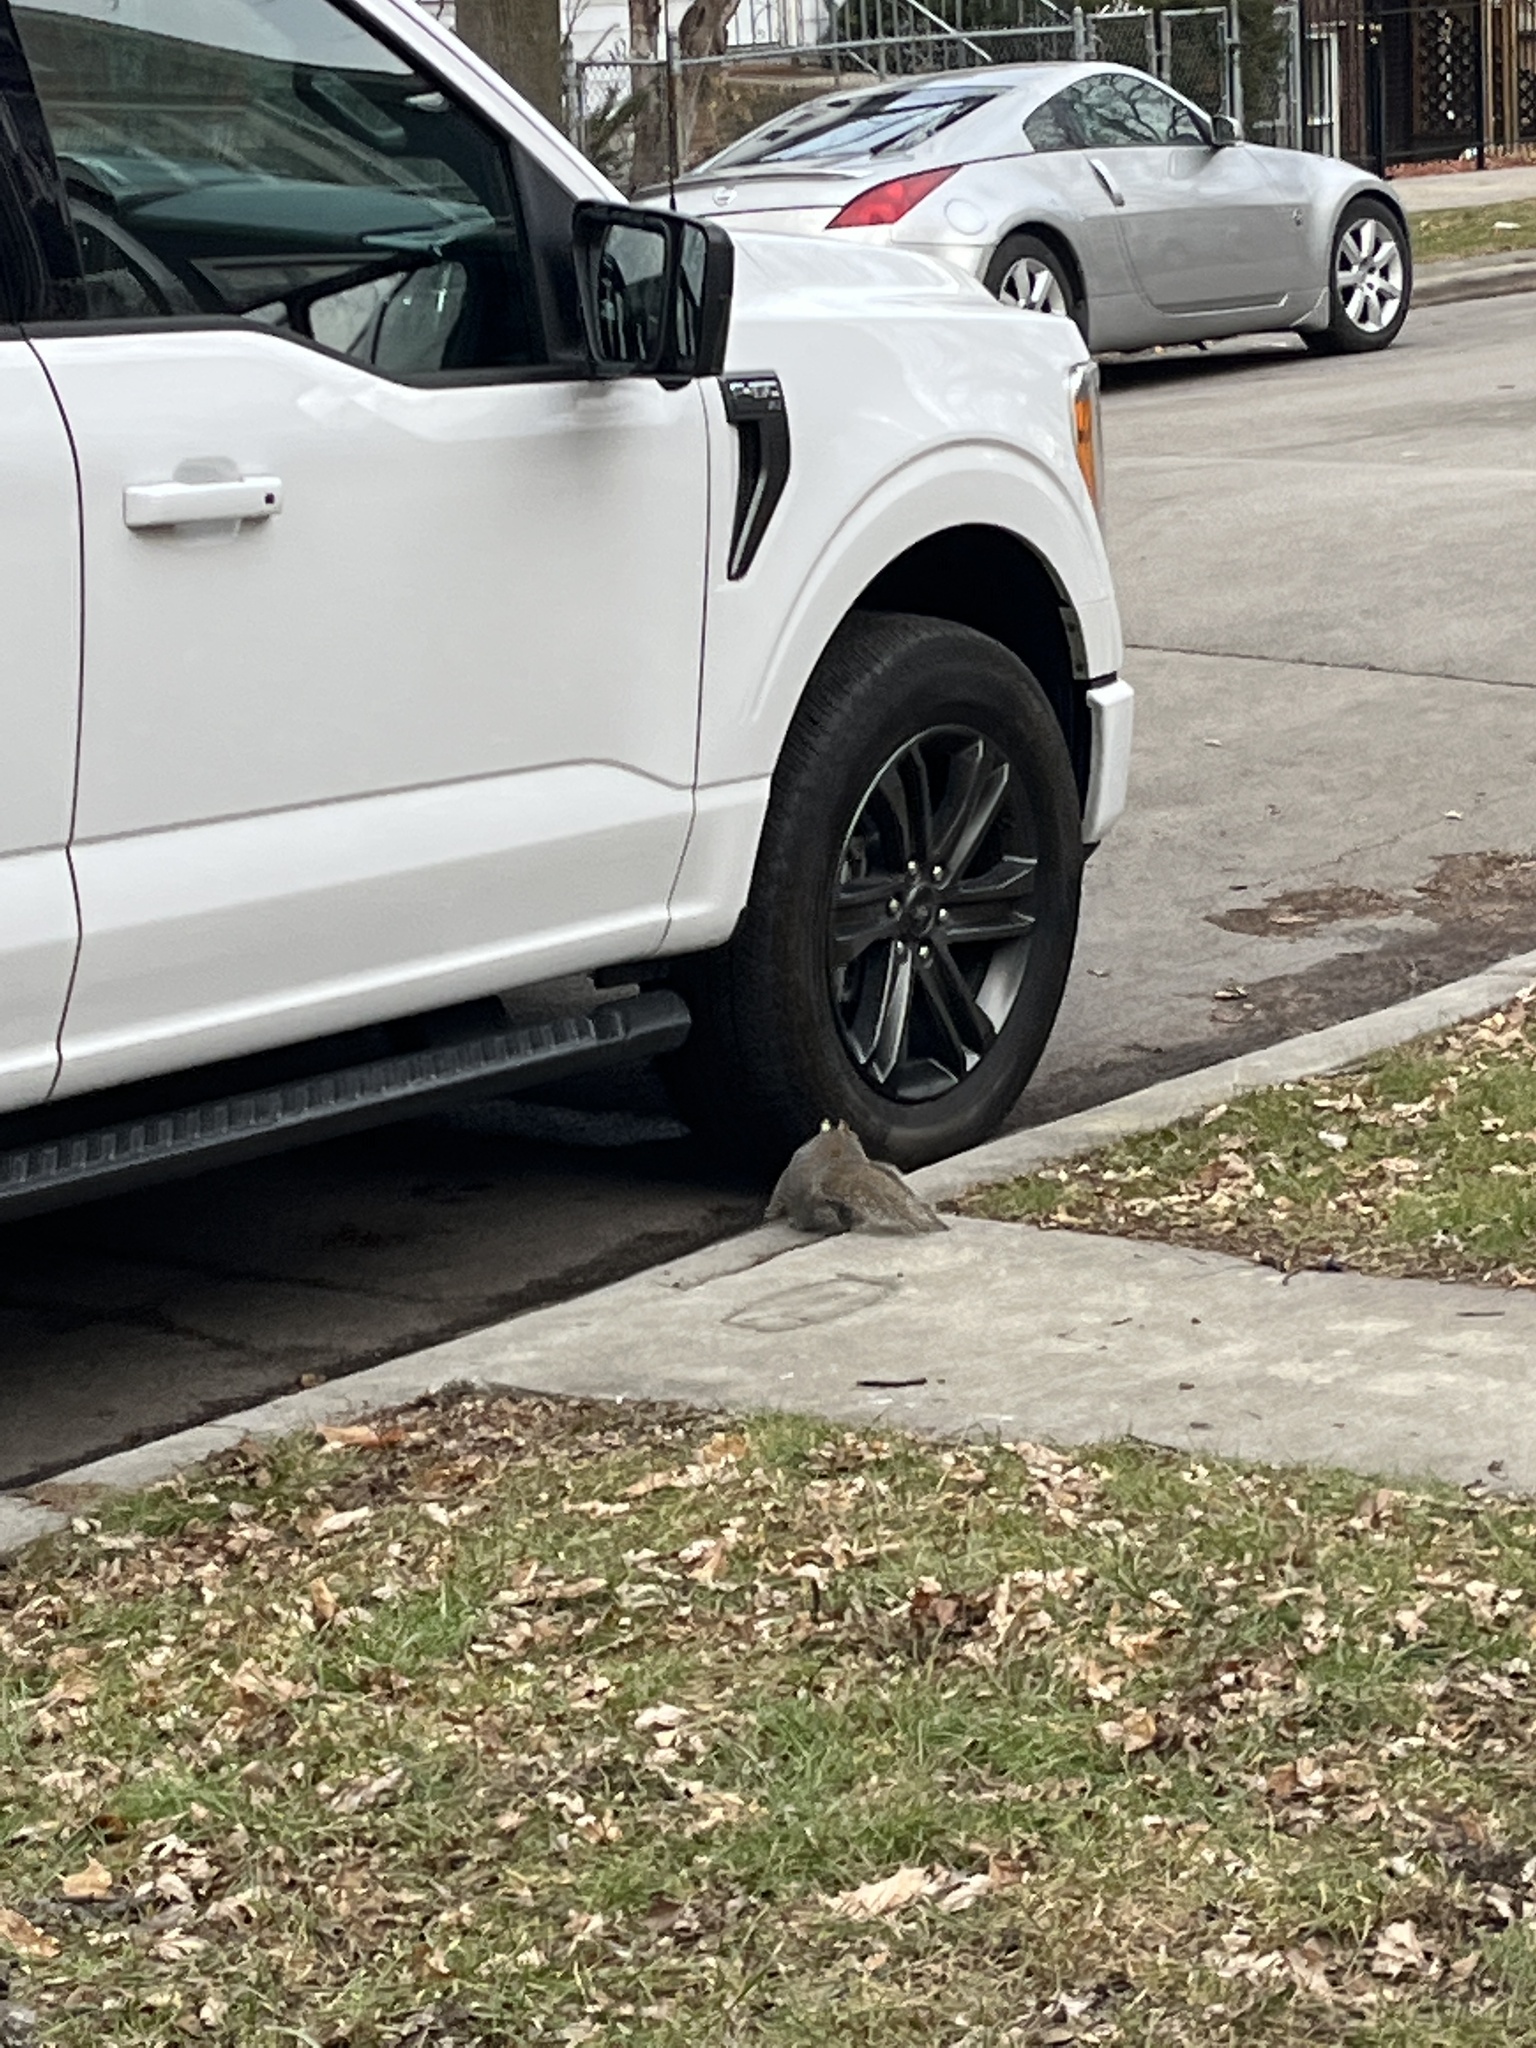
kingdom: Animalia
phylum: Chordata
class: Mammalia
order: Rodentia
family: Sciuridae
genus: Sciurus
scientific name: Sciurus carolinensis
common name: Eastern gray squirrel
